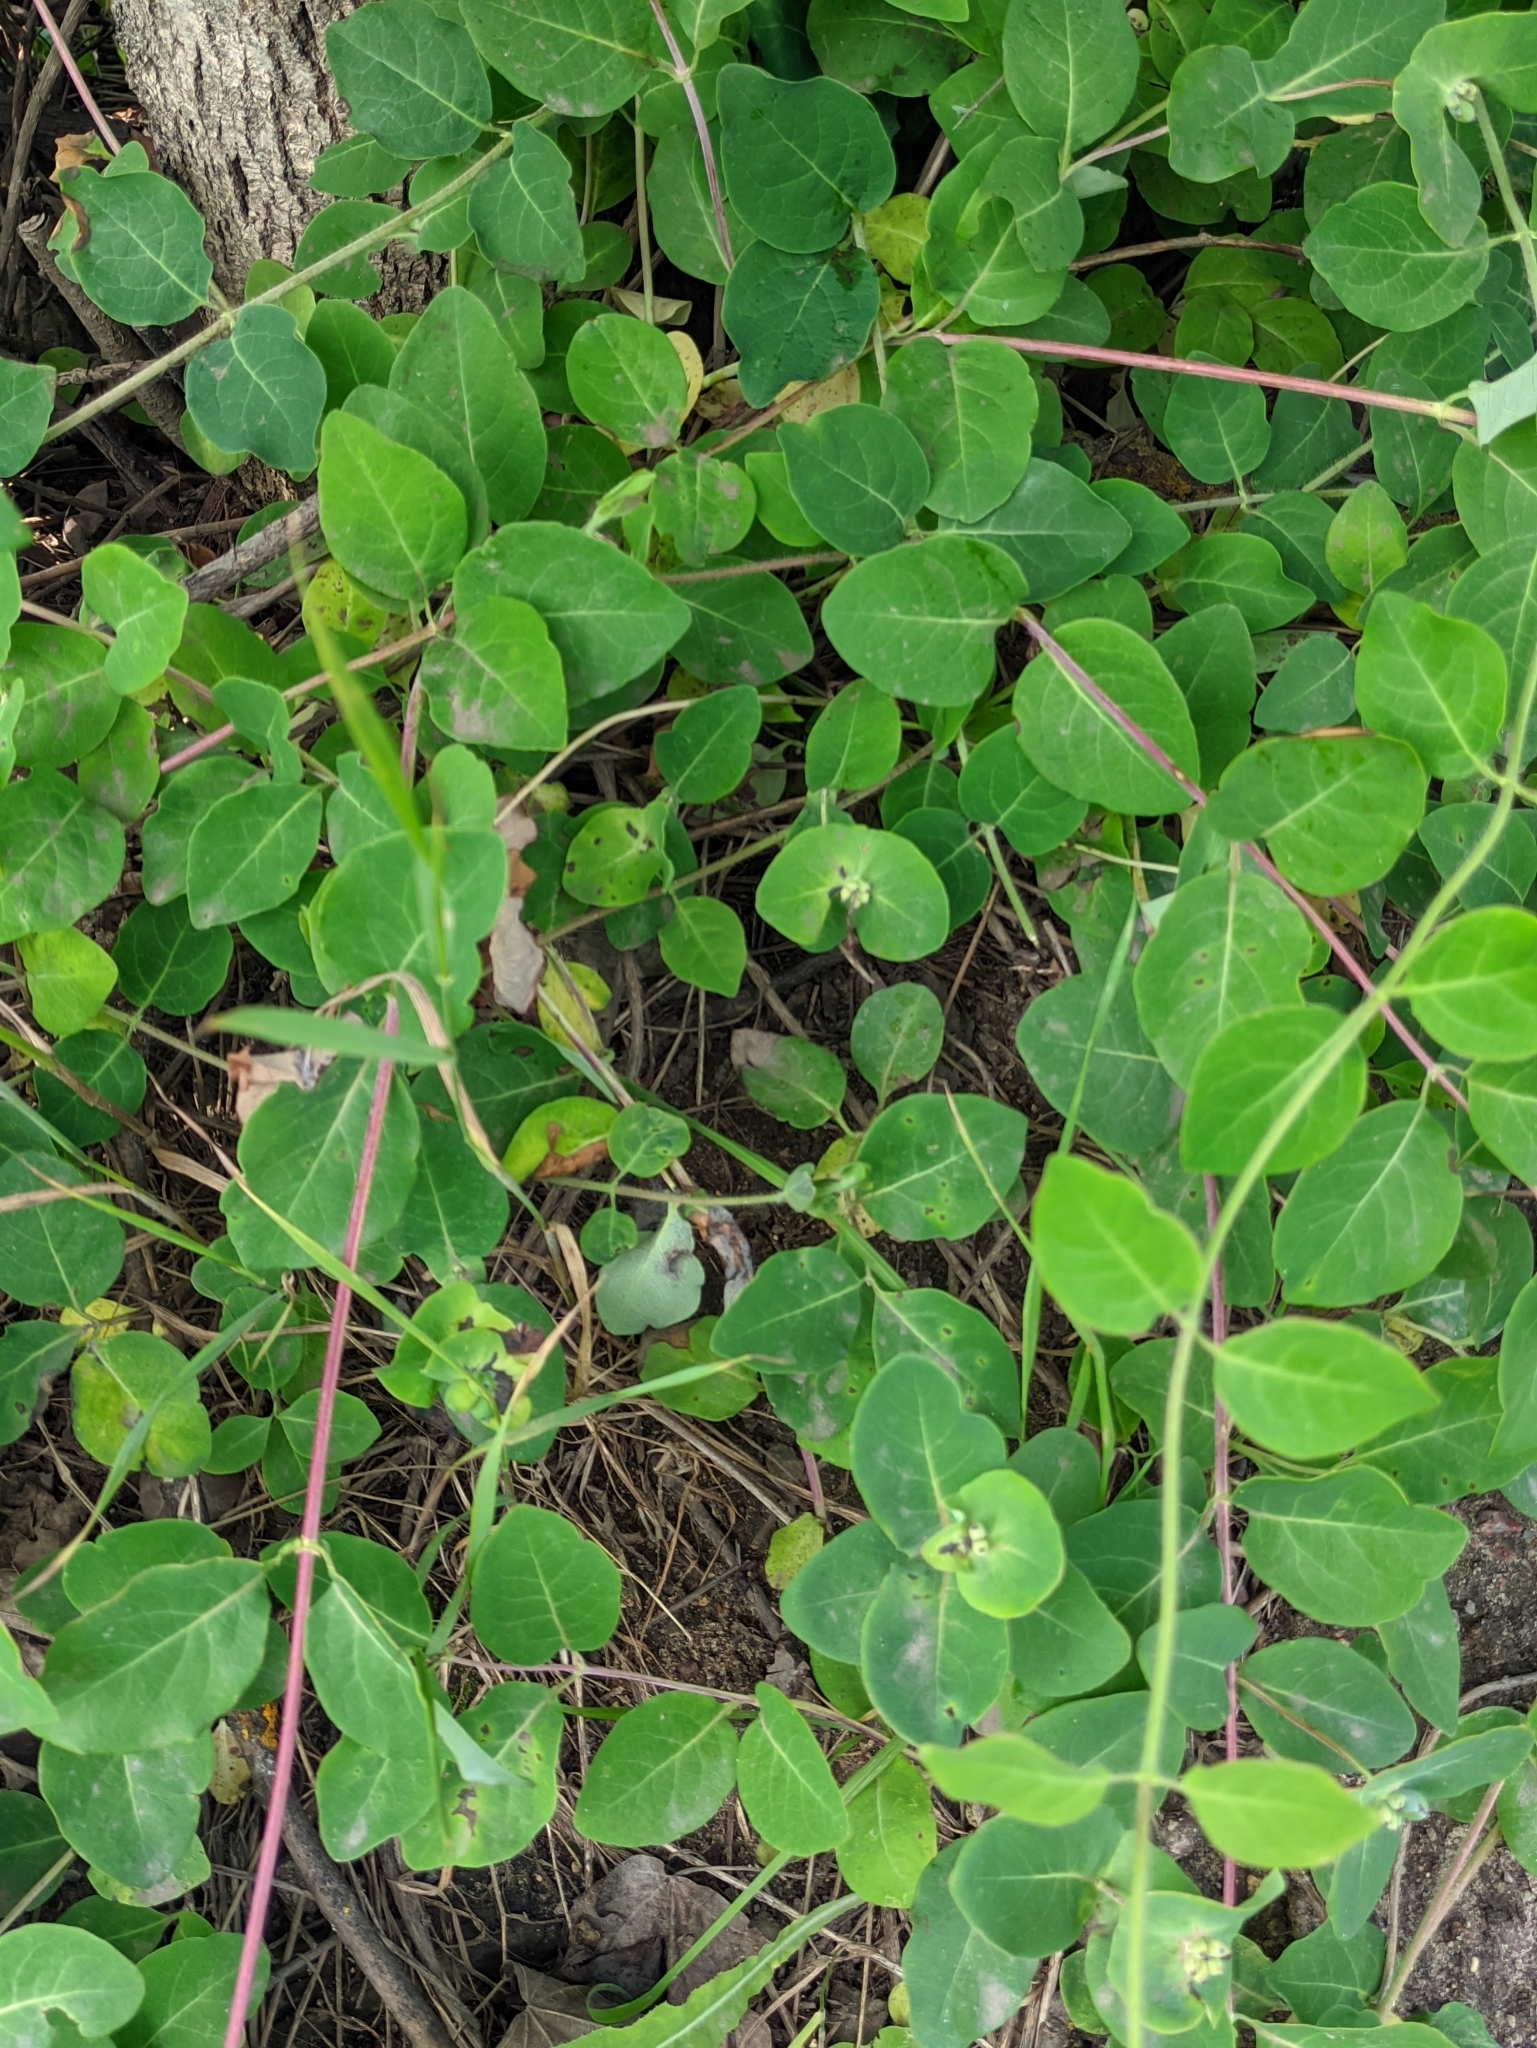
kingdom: Plantae
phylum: Tracheophyta
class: Magnoliopsida
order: Dipsacales
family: Caprifoliaceae
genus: Lonicera
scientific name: Lonicera caprifolium
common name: Perfoliate honeysuckle
